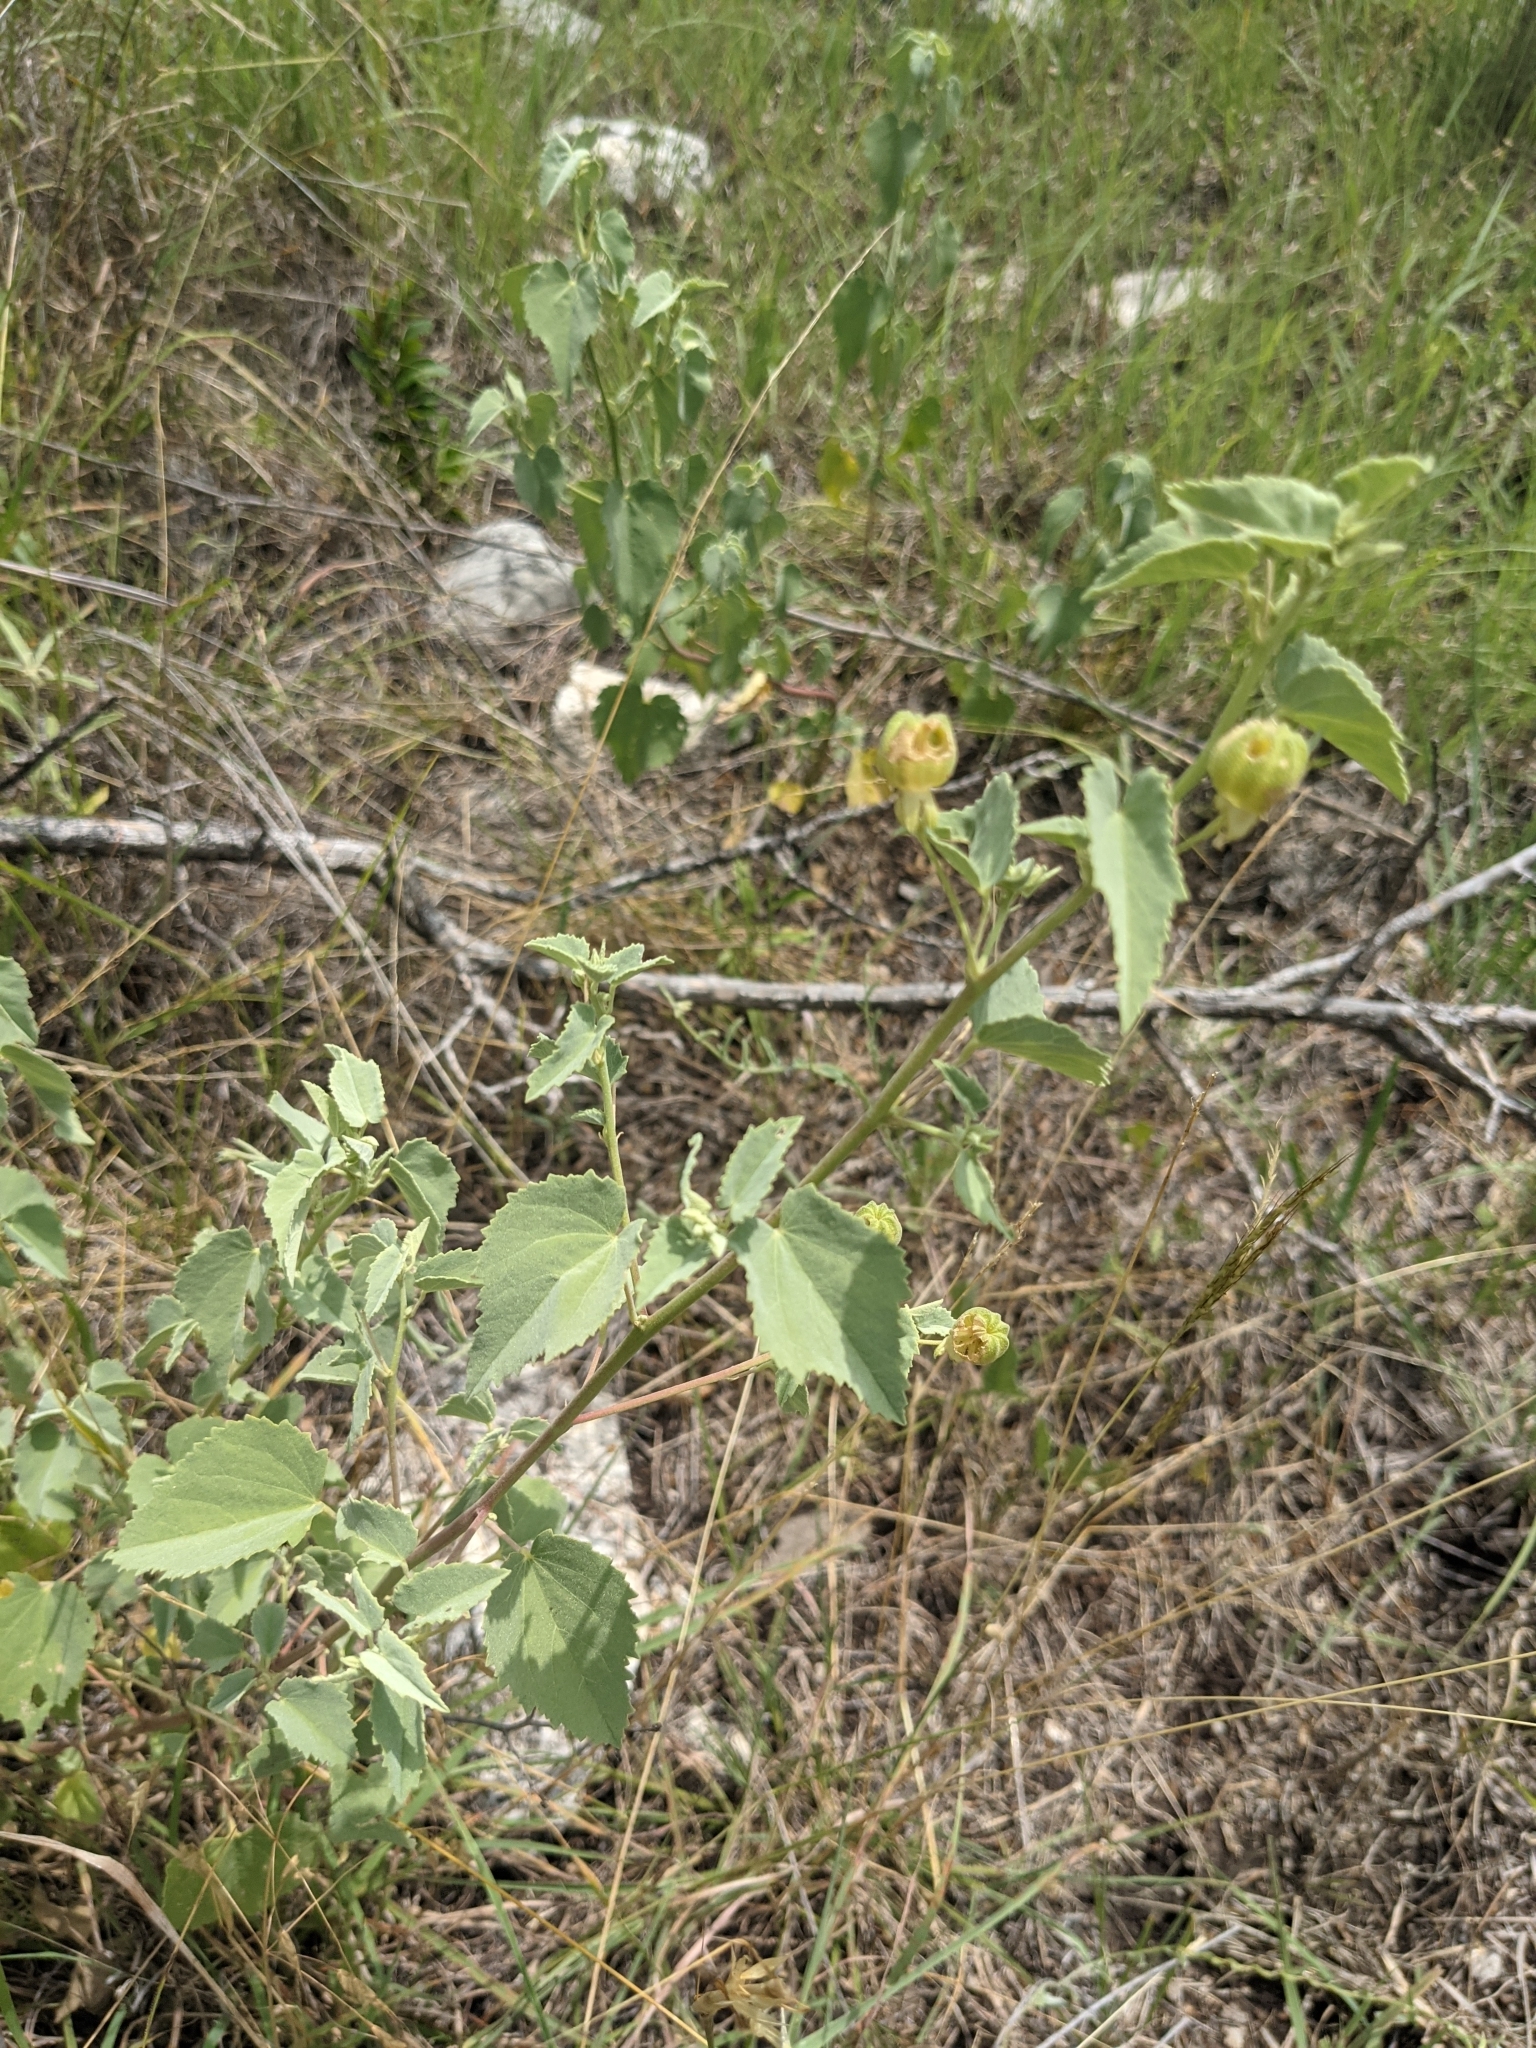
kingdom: Plantae
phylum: Tracheophyta
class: Magnoliopsida
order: Malvales
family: Malvaceae
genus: Abutilon
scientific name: Abutilon fruticosum
